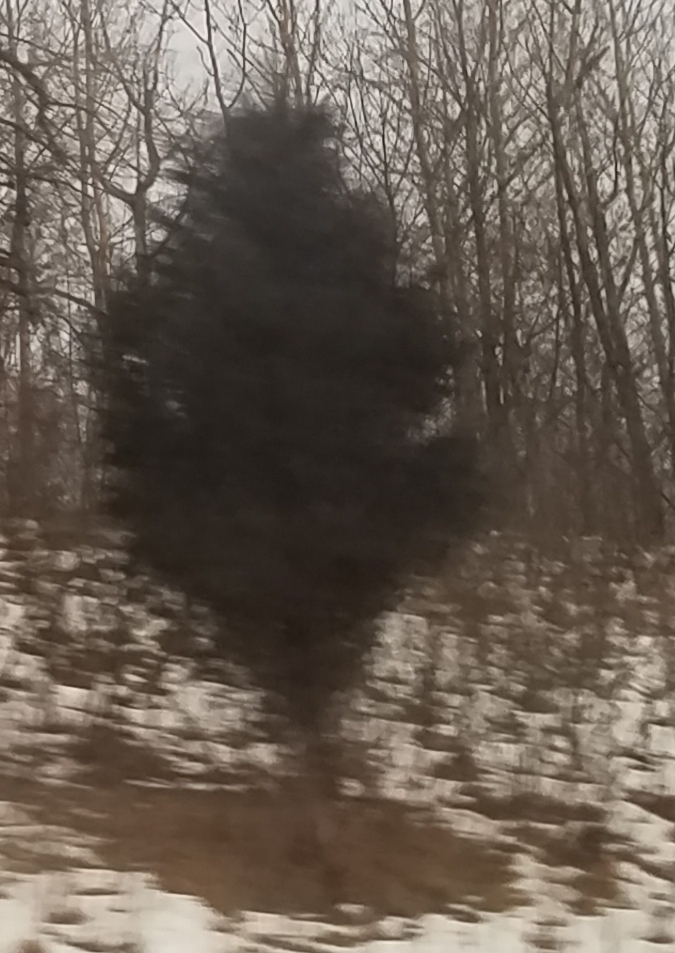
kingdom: Plantae
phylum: Tracheophyta
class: Pinopsida
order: Pinales
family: Cupressaceae
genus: Juniperus
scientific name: Juniperus virginiana
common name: Red juniper
